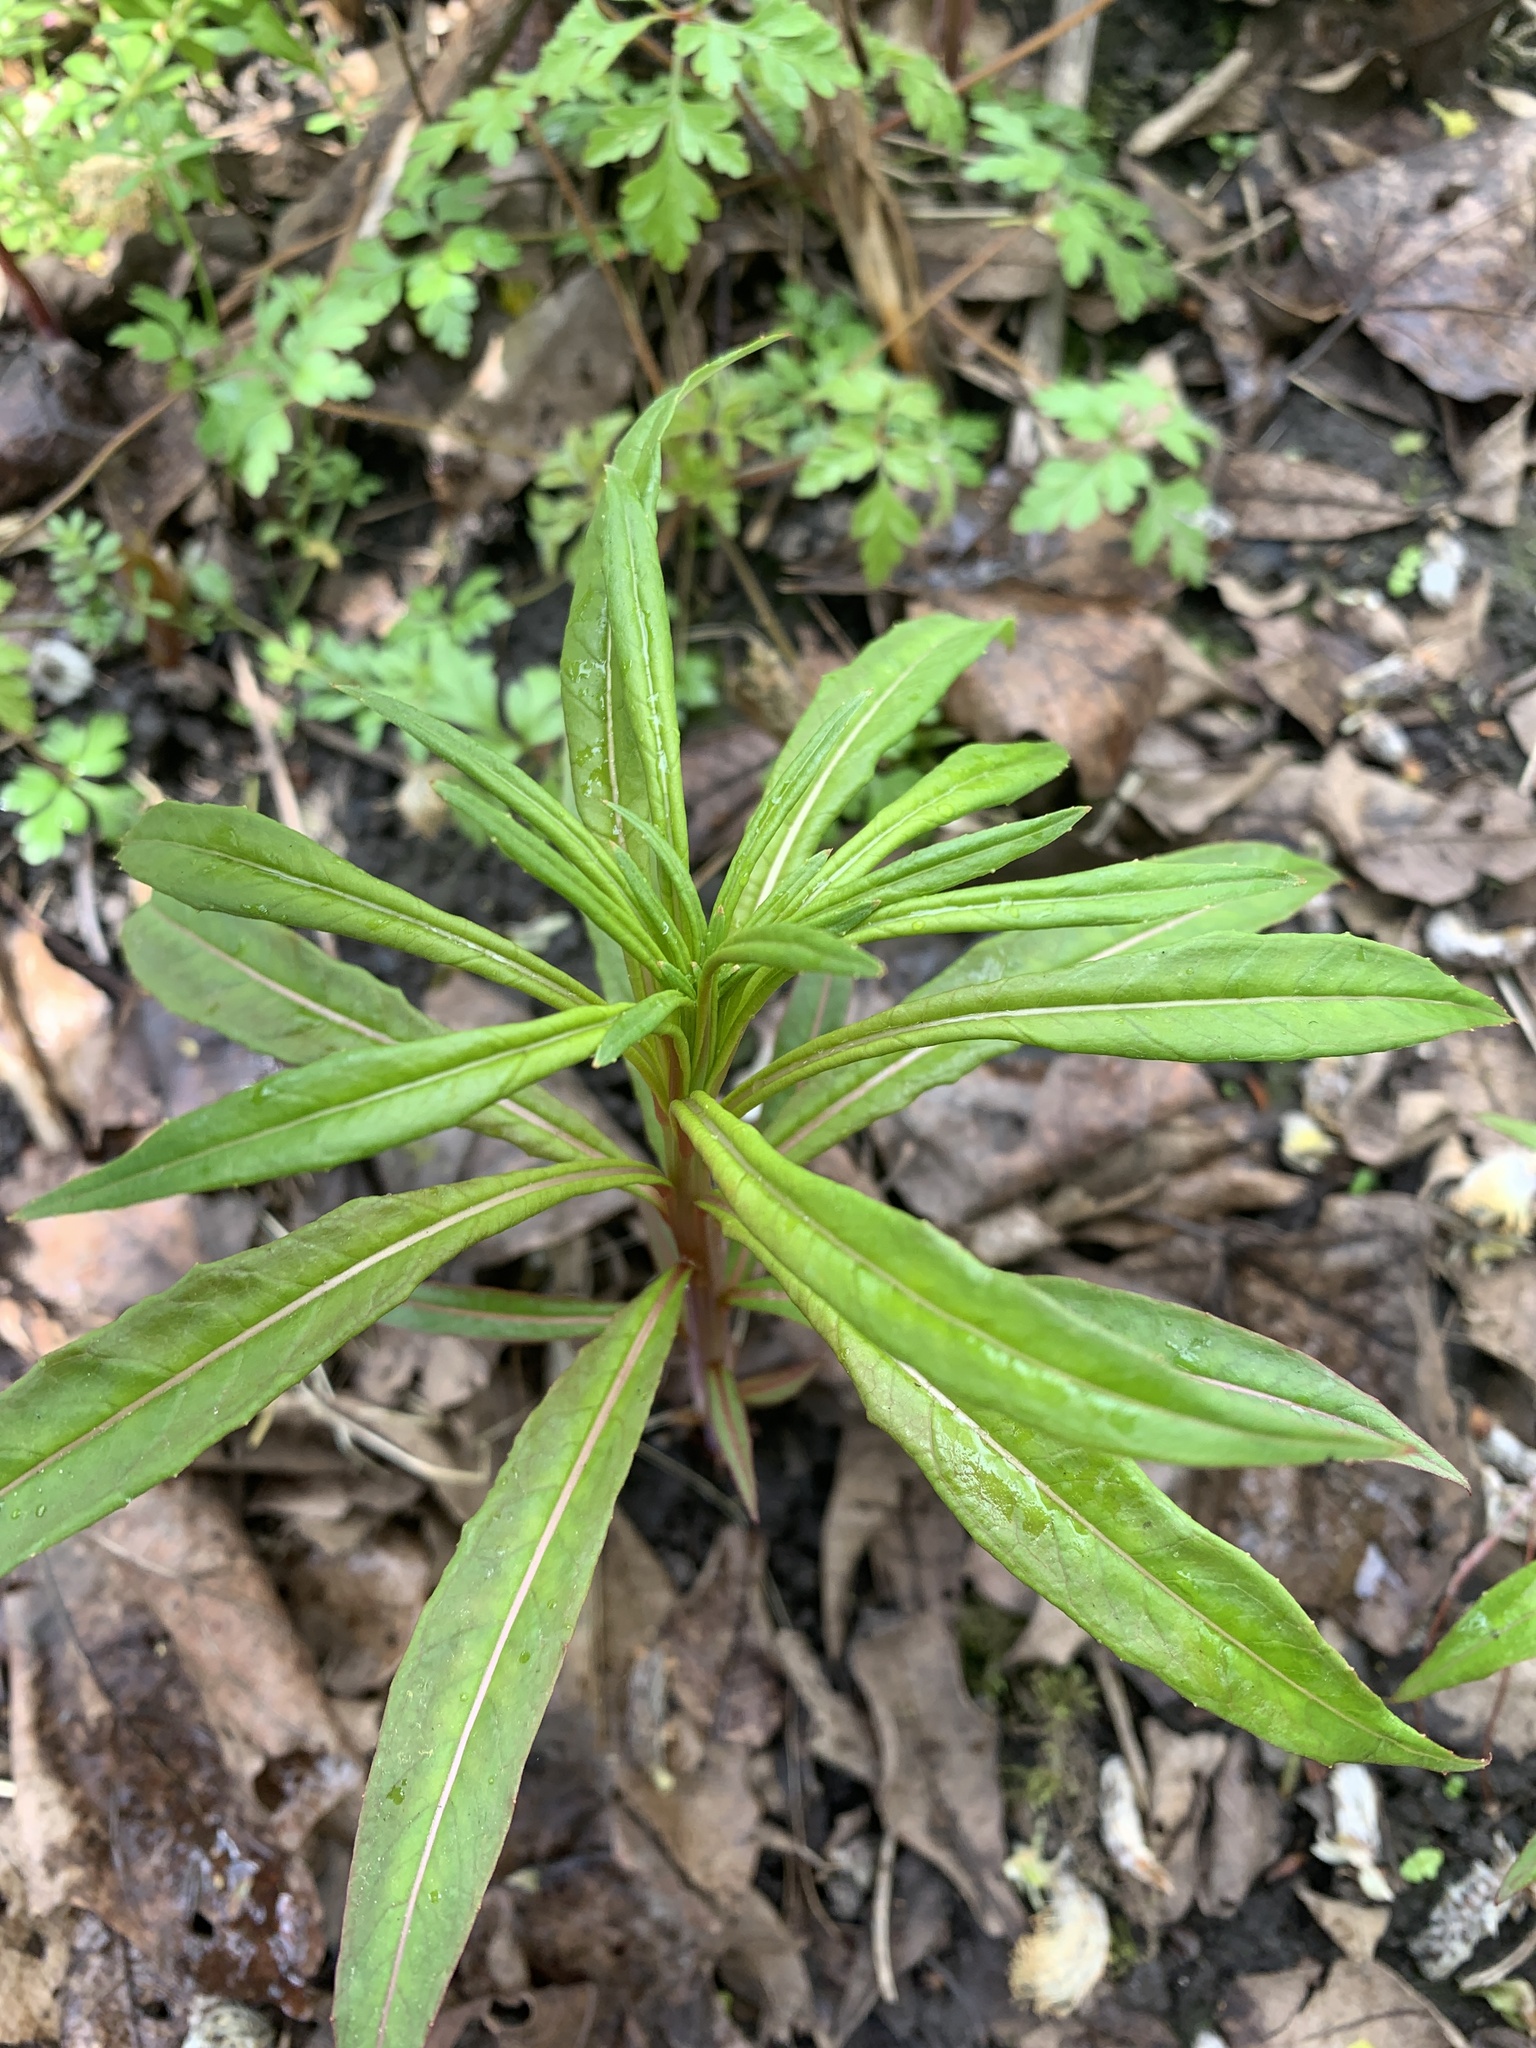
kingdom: Plantae
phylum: Tracheophyta
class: Magnoliopsida
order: Myrtales
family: Onagraceae
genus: Chamaenerion
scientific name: Chamaenerion angustifolium
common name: Fireweed
